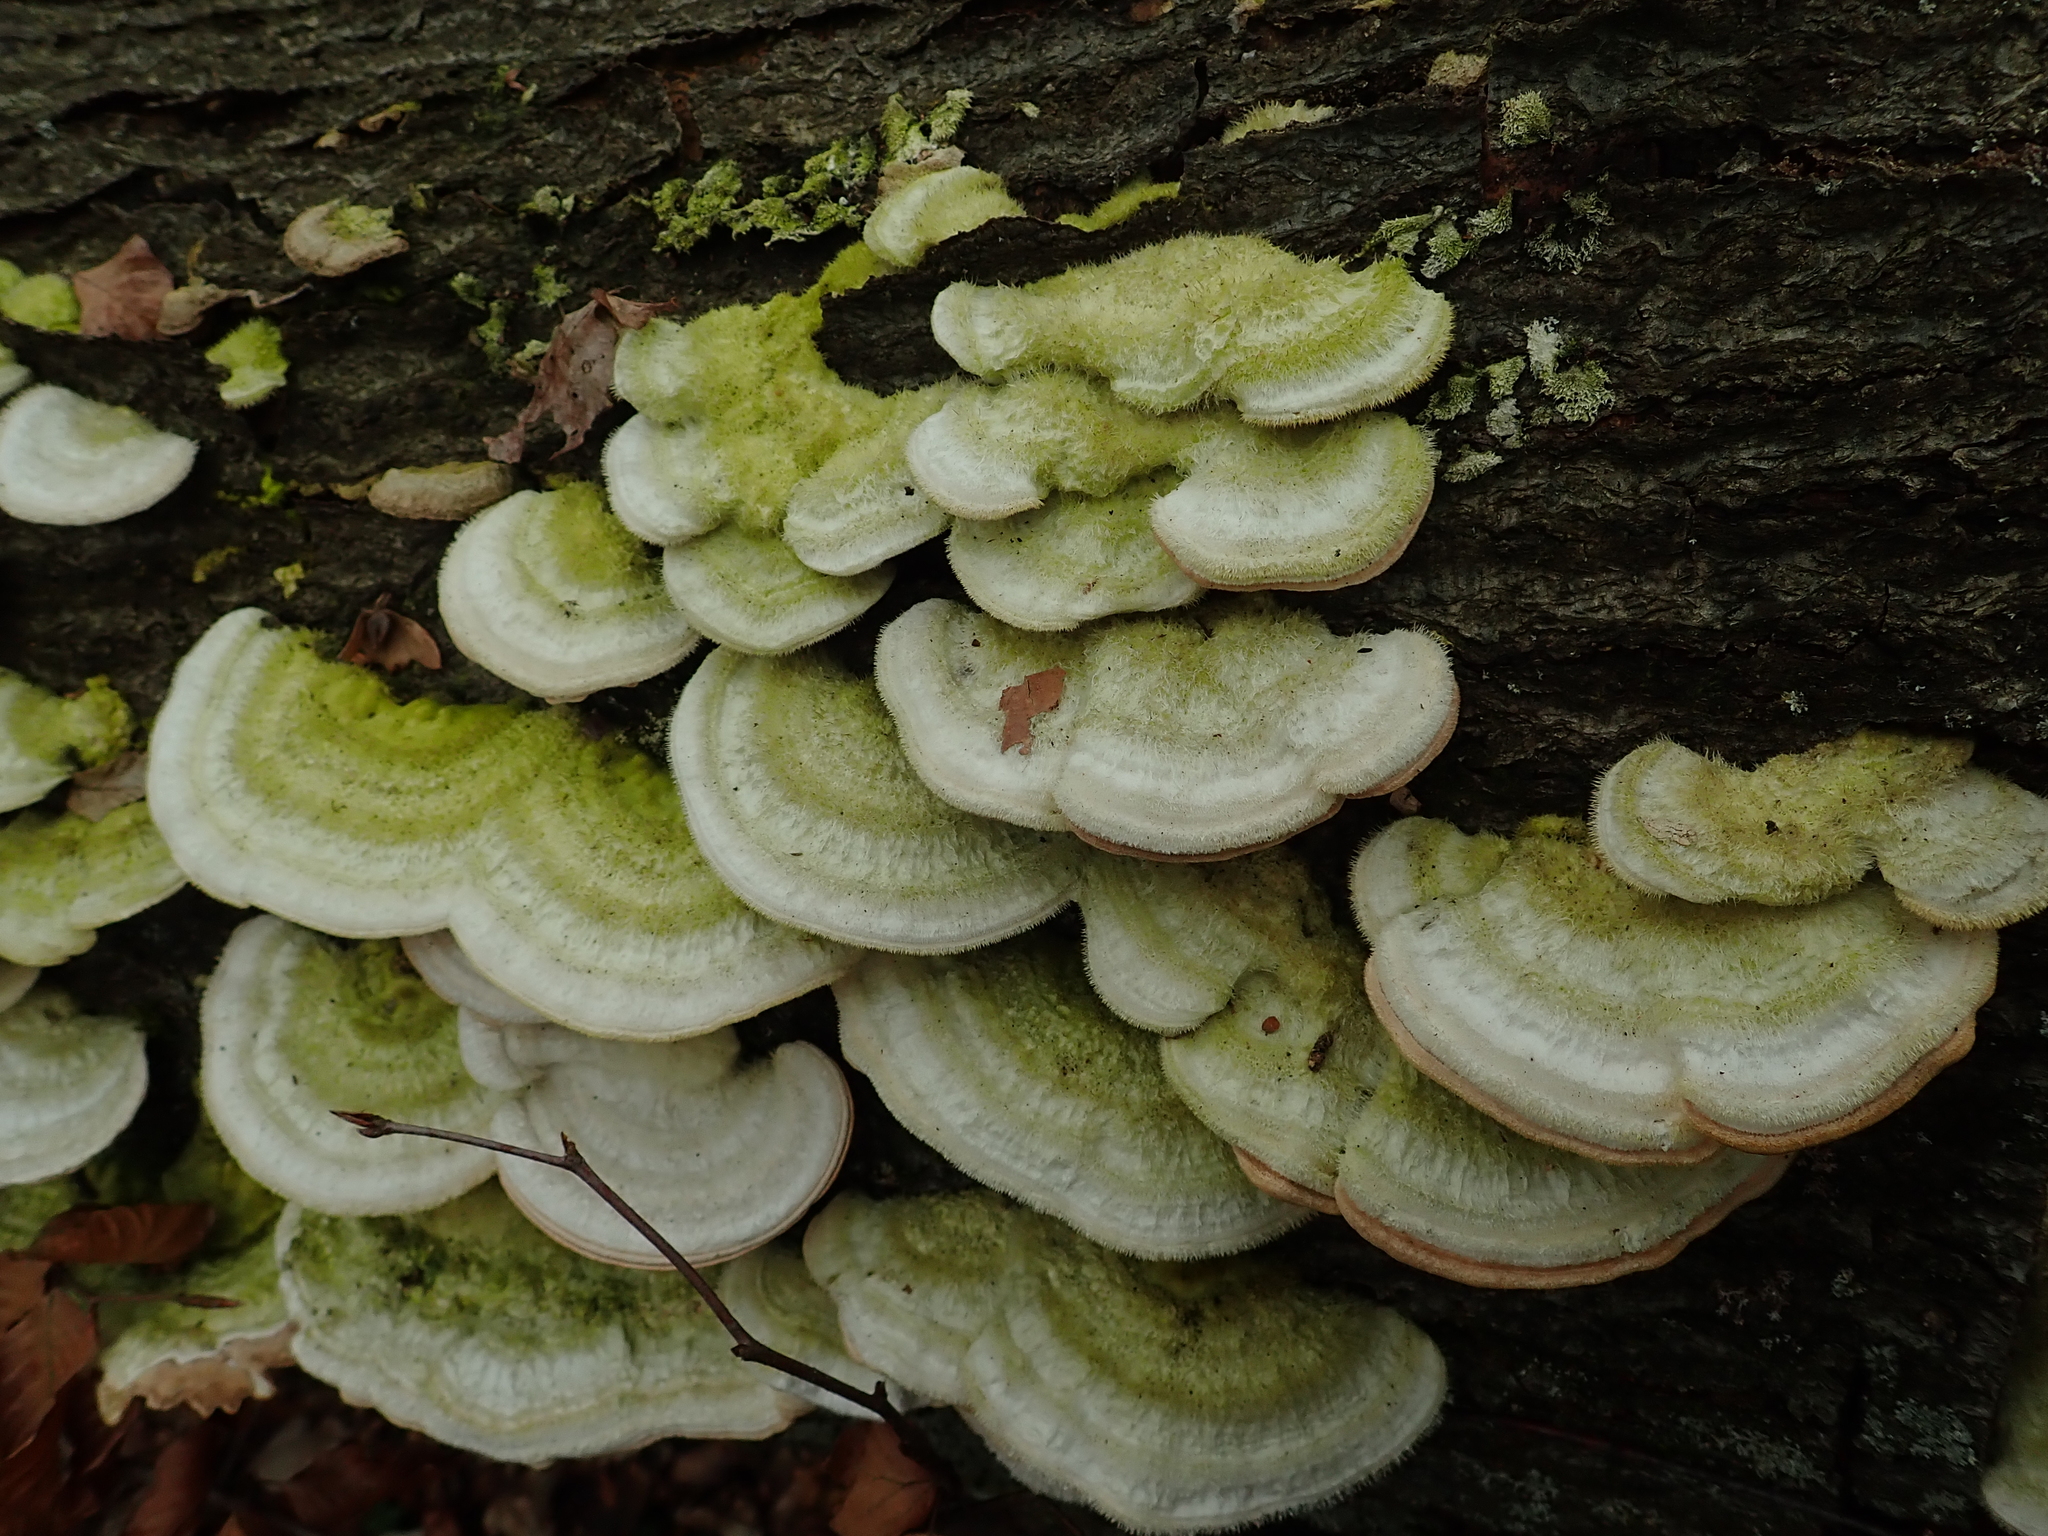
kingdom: Fungi
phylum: Basidiomycota
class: Agaricomycetes
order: Polyporales
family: Polyporaceae
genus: Trametes
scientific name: Trametes hirsuta
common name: Hairy bracket
